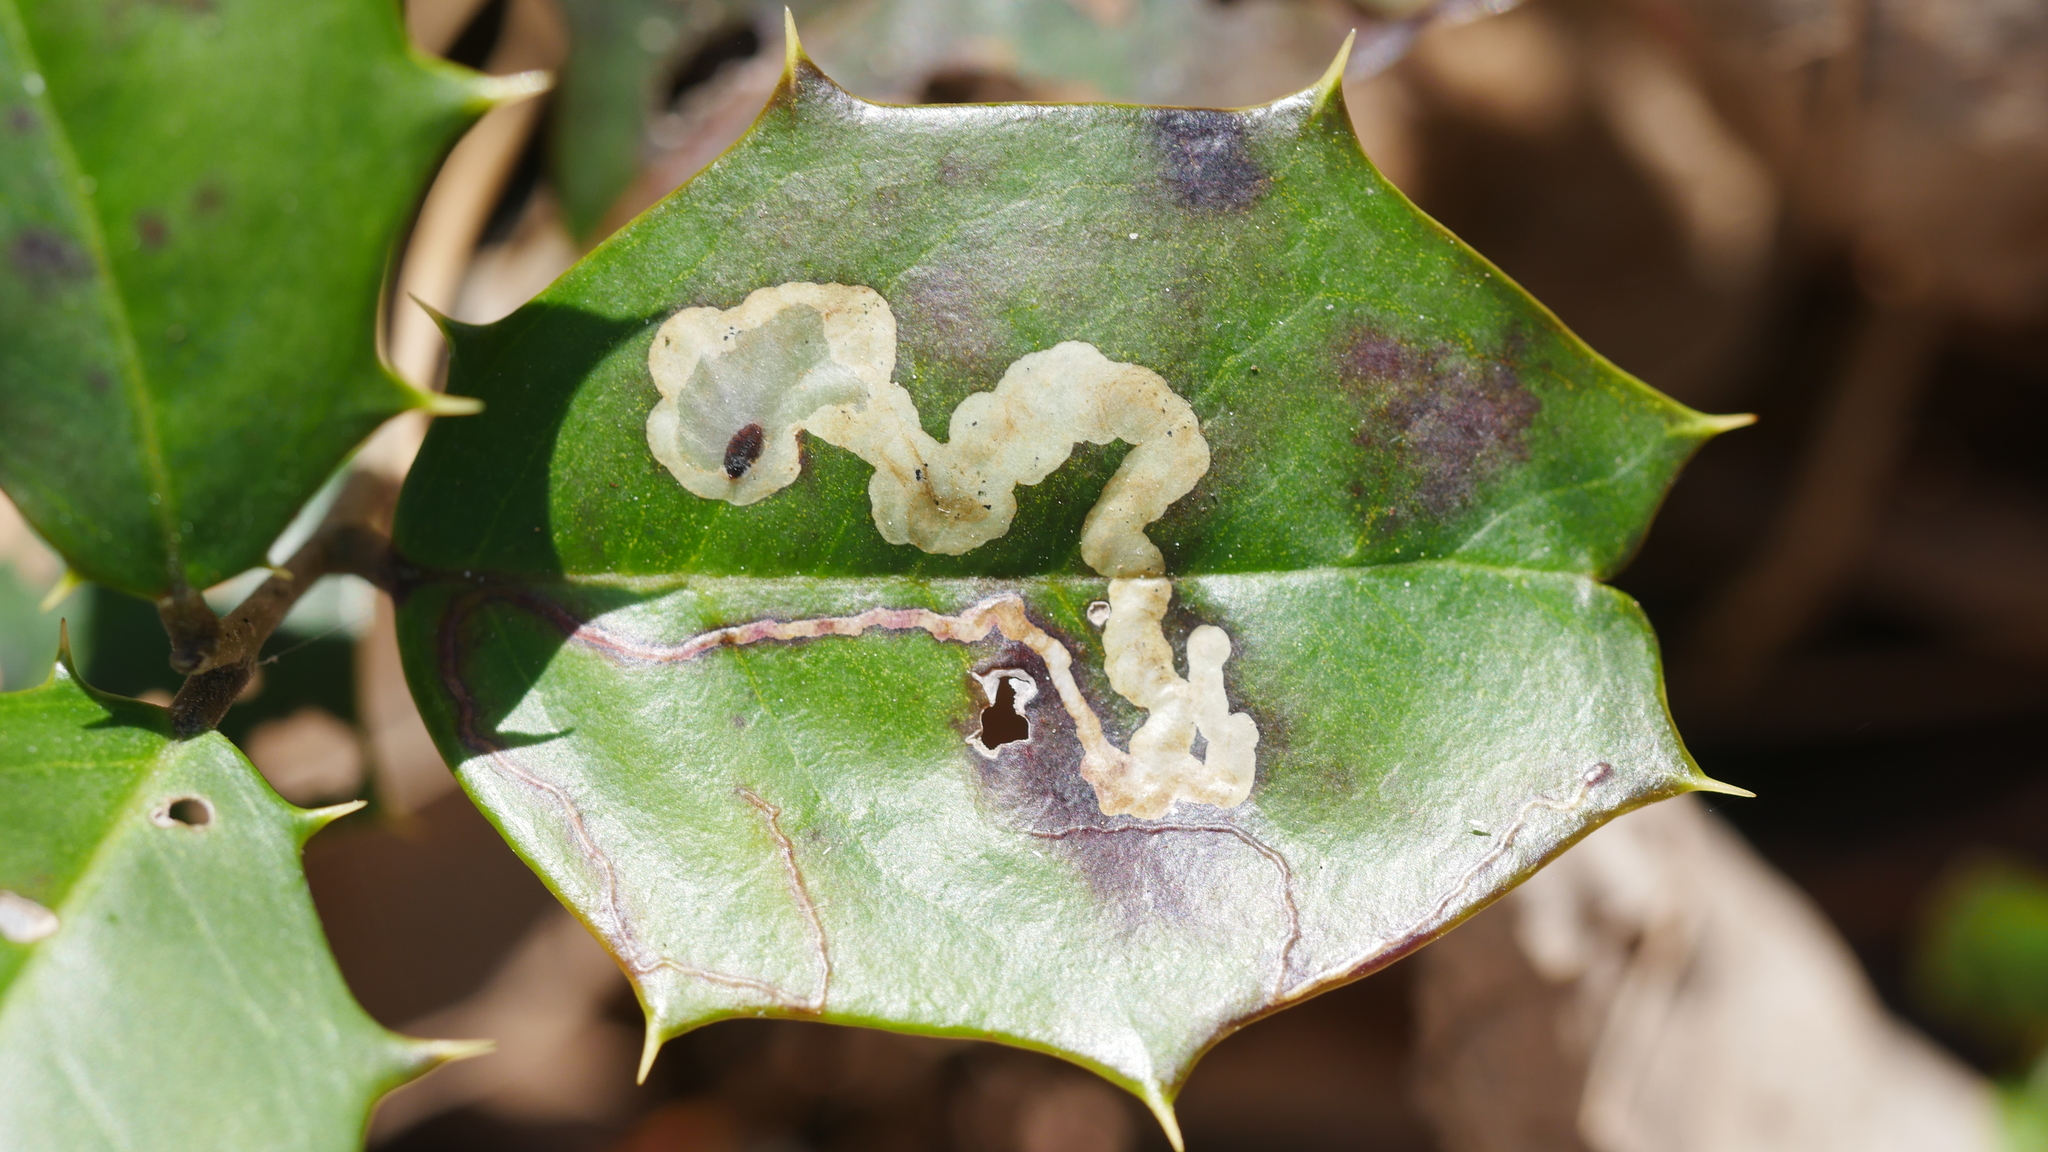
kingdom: Animalia
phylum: Arthropoda
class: Insecta
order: Diptera
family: Agromyzidae
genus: Phytomyza
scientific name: Phytomyza ilicicola
